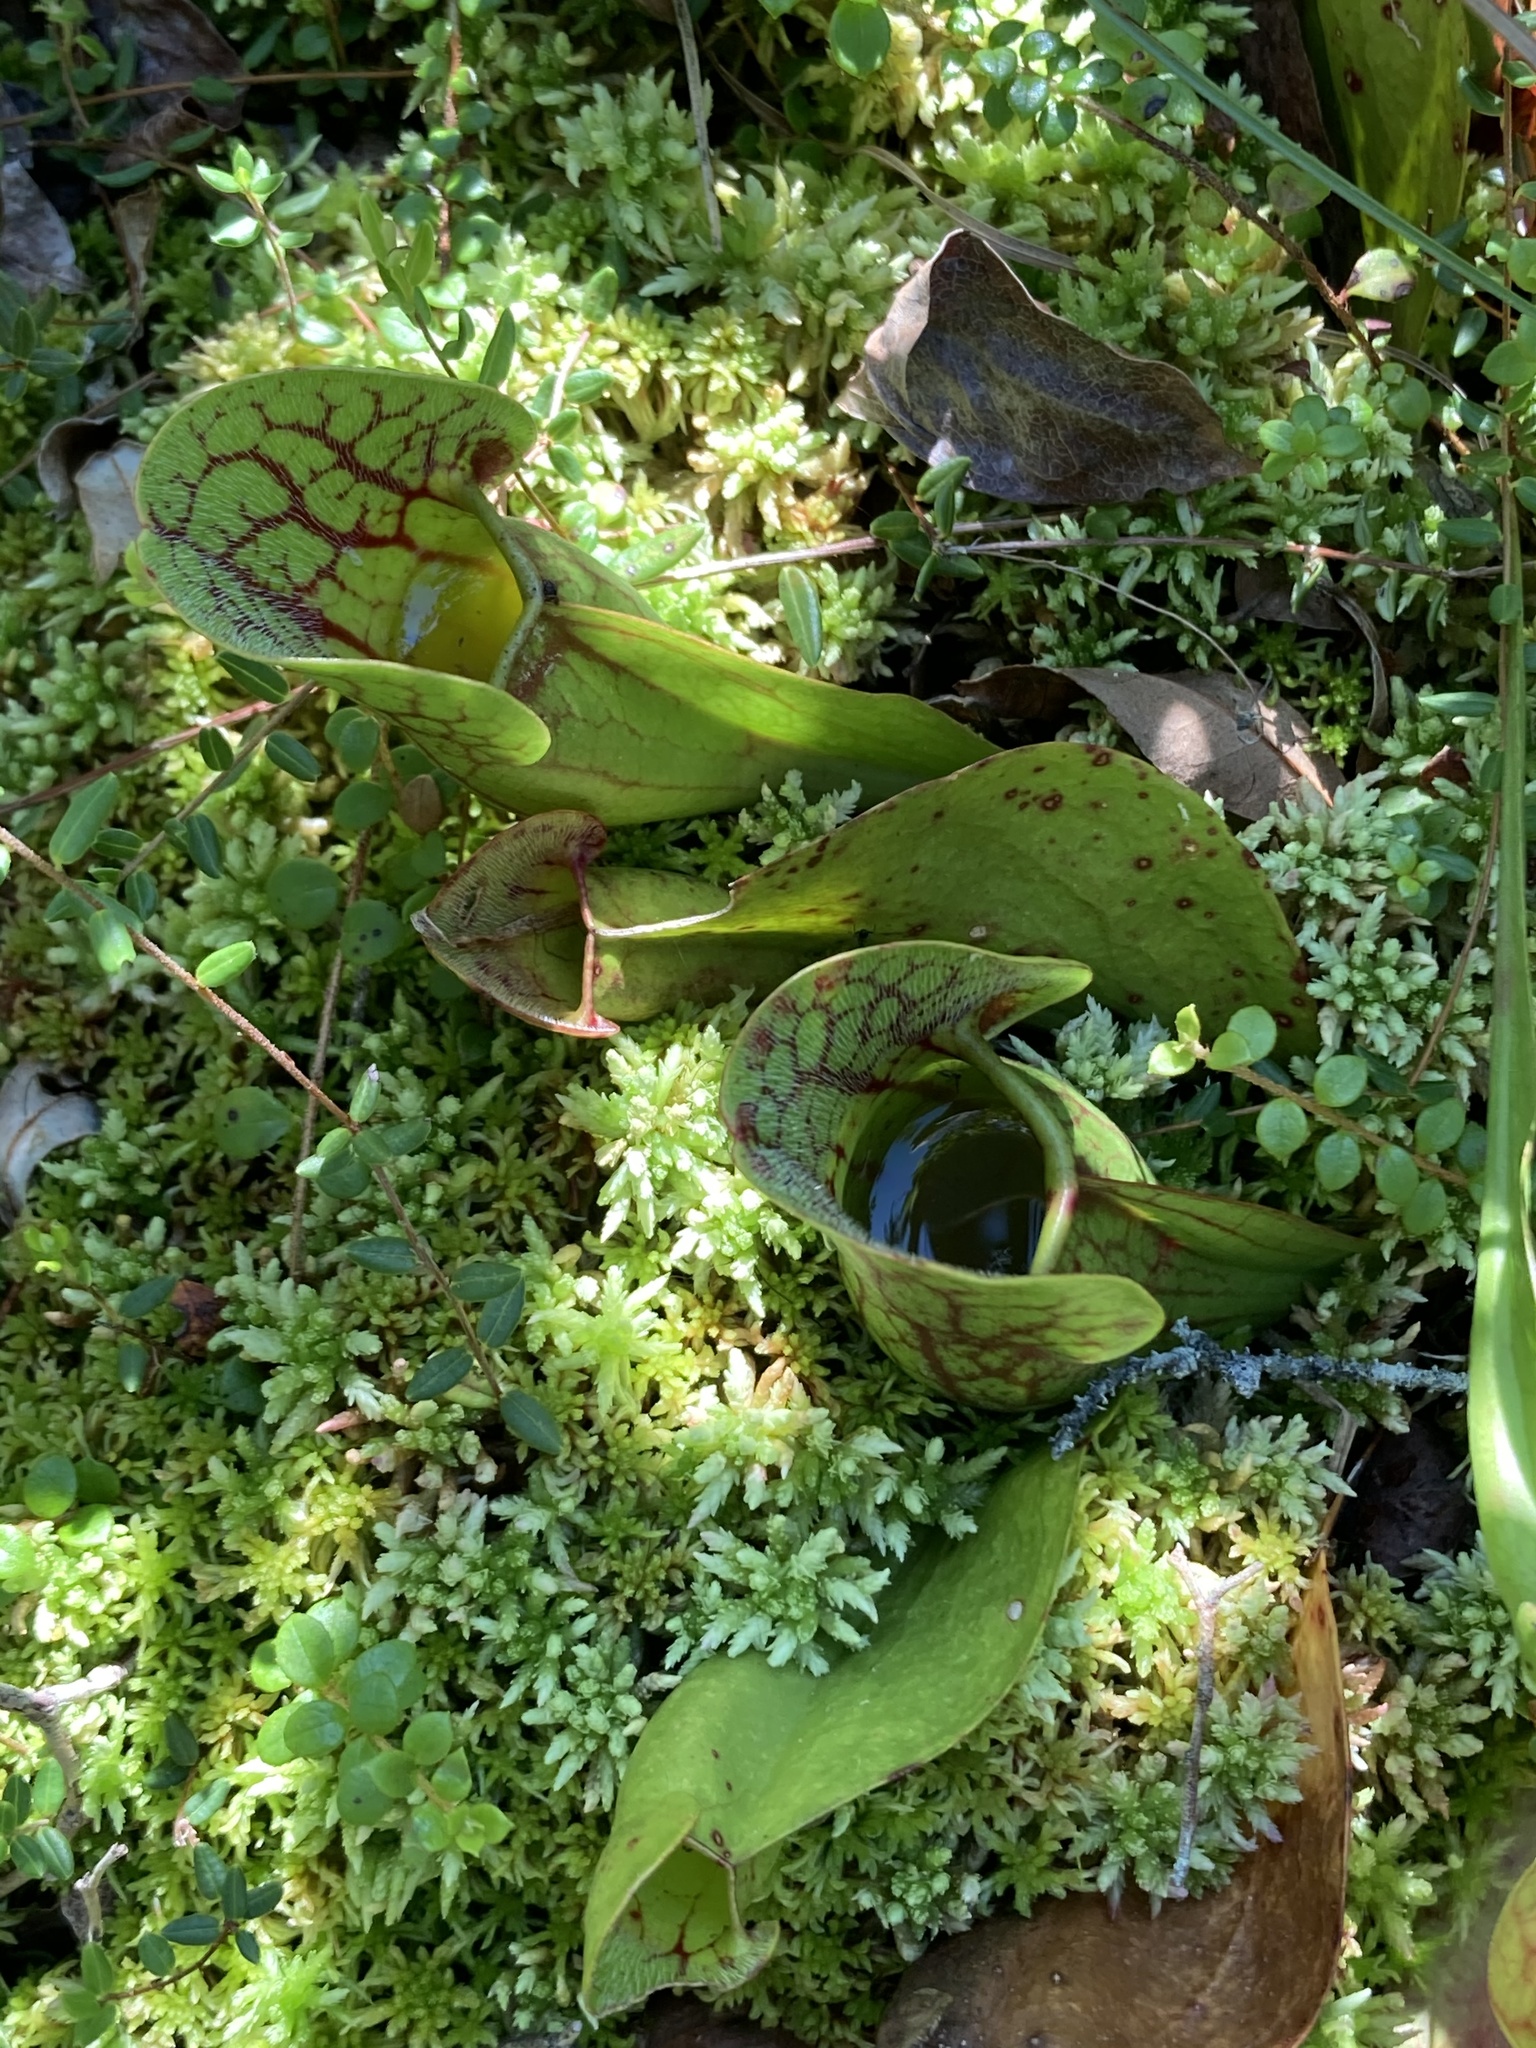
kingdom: Plantae
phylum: Tracheophyta
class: Magnoliopsida
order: Ericales
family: Sarraceniaceae
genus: Sarracenia
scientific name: Sarracenia purpurea
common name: Pitcherplant
